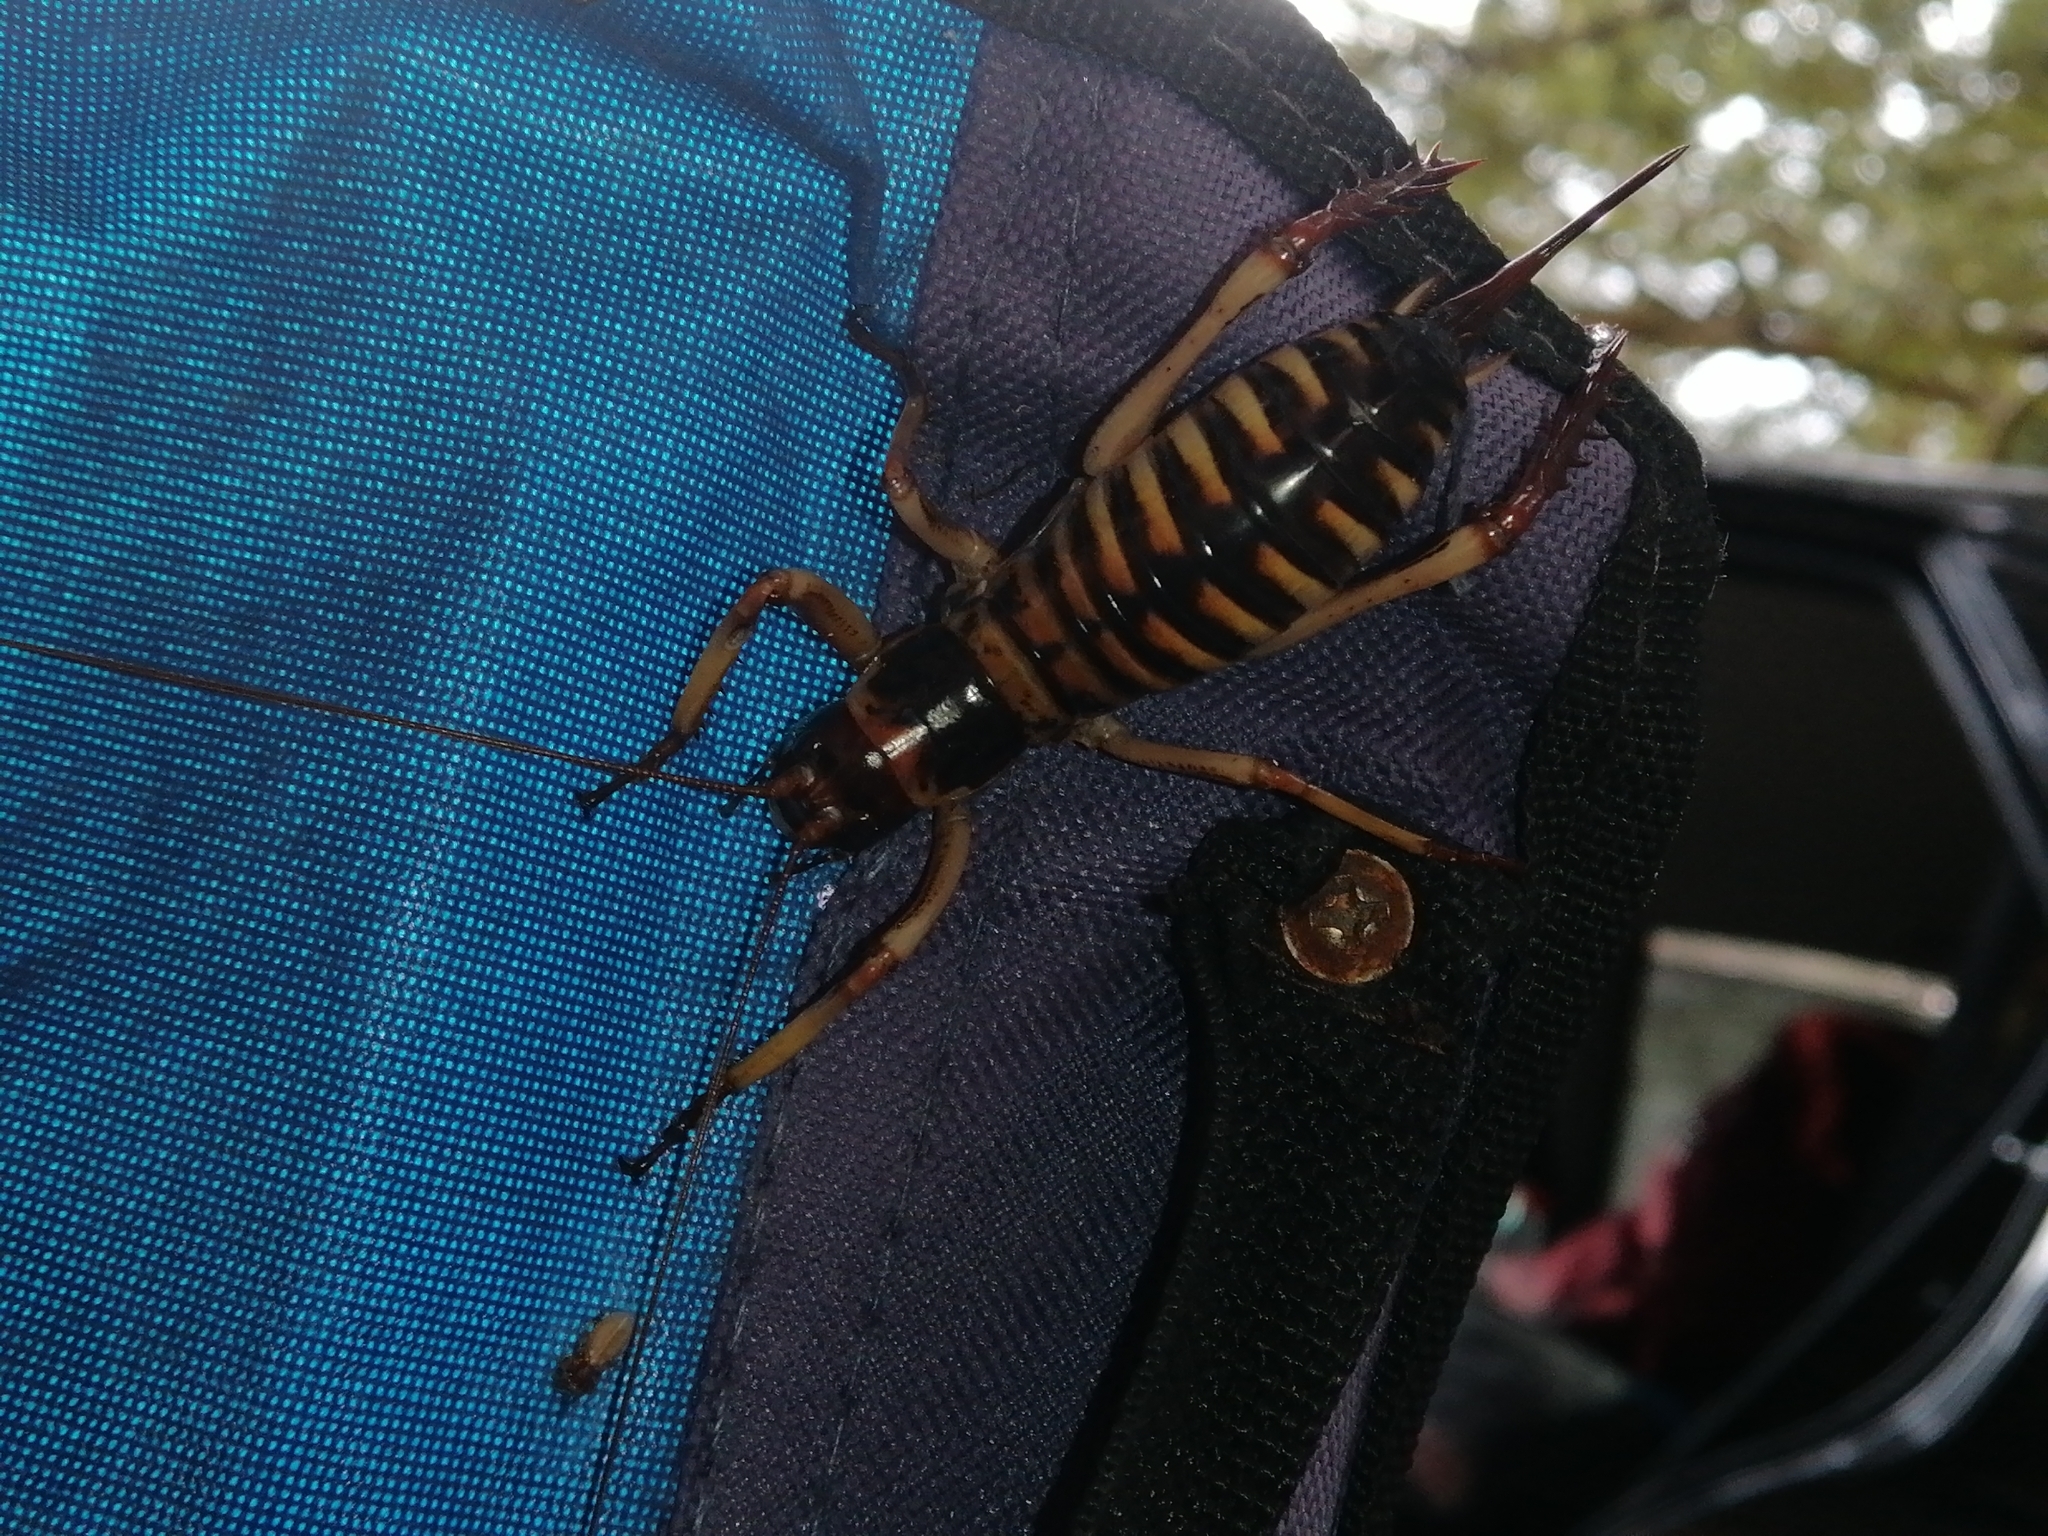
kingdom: Animalia
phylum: Arthropoda
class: Insecta
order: Orthoptera
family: Anostostomatidae
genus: Hemideina
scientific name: Hemideina crassidens
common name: Wellington tree weta
